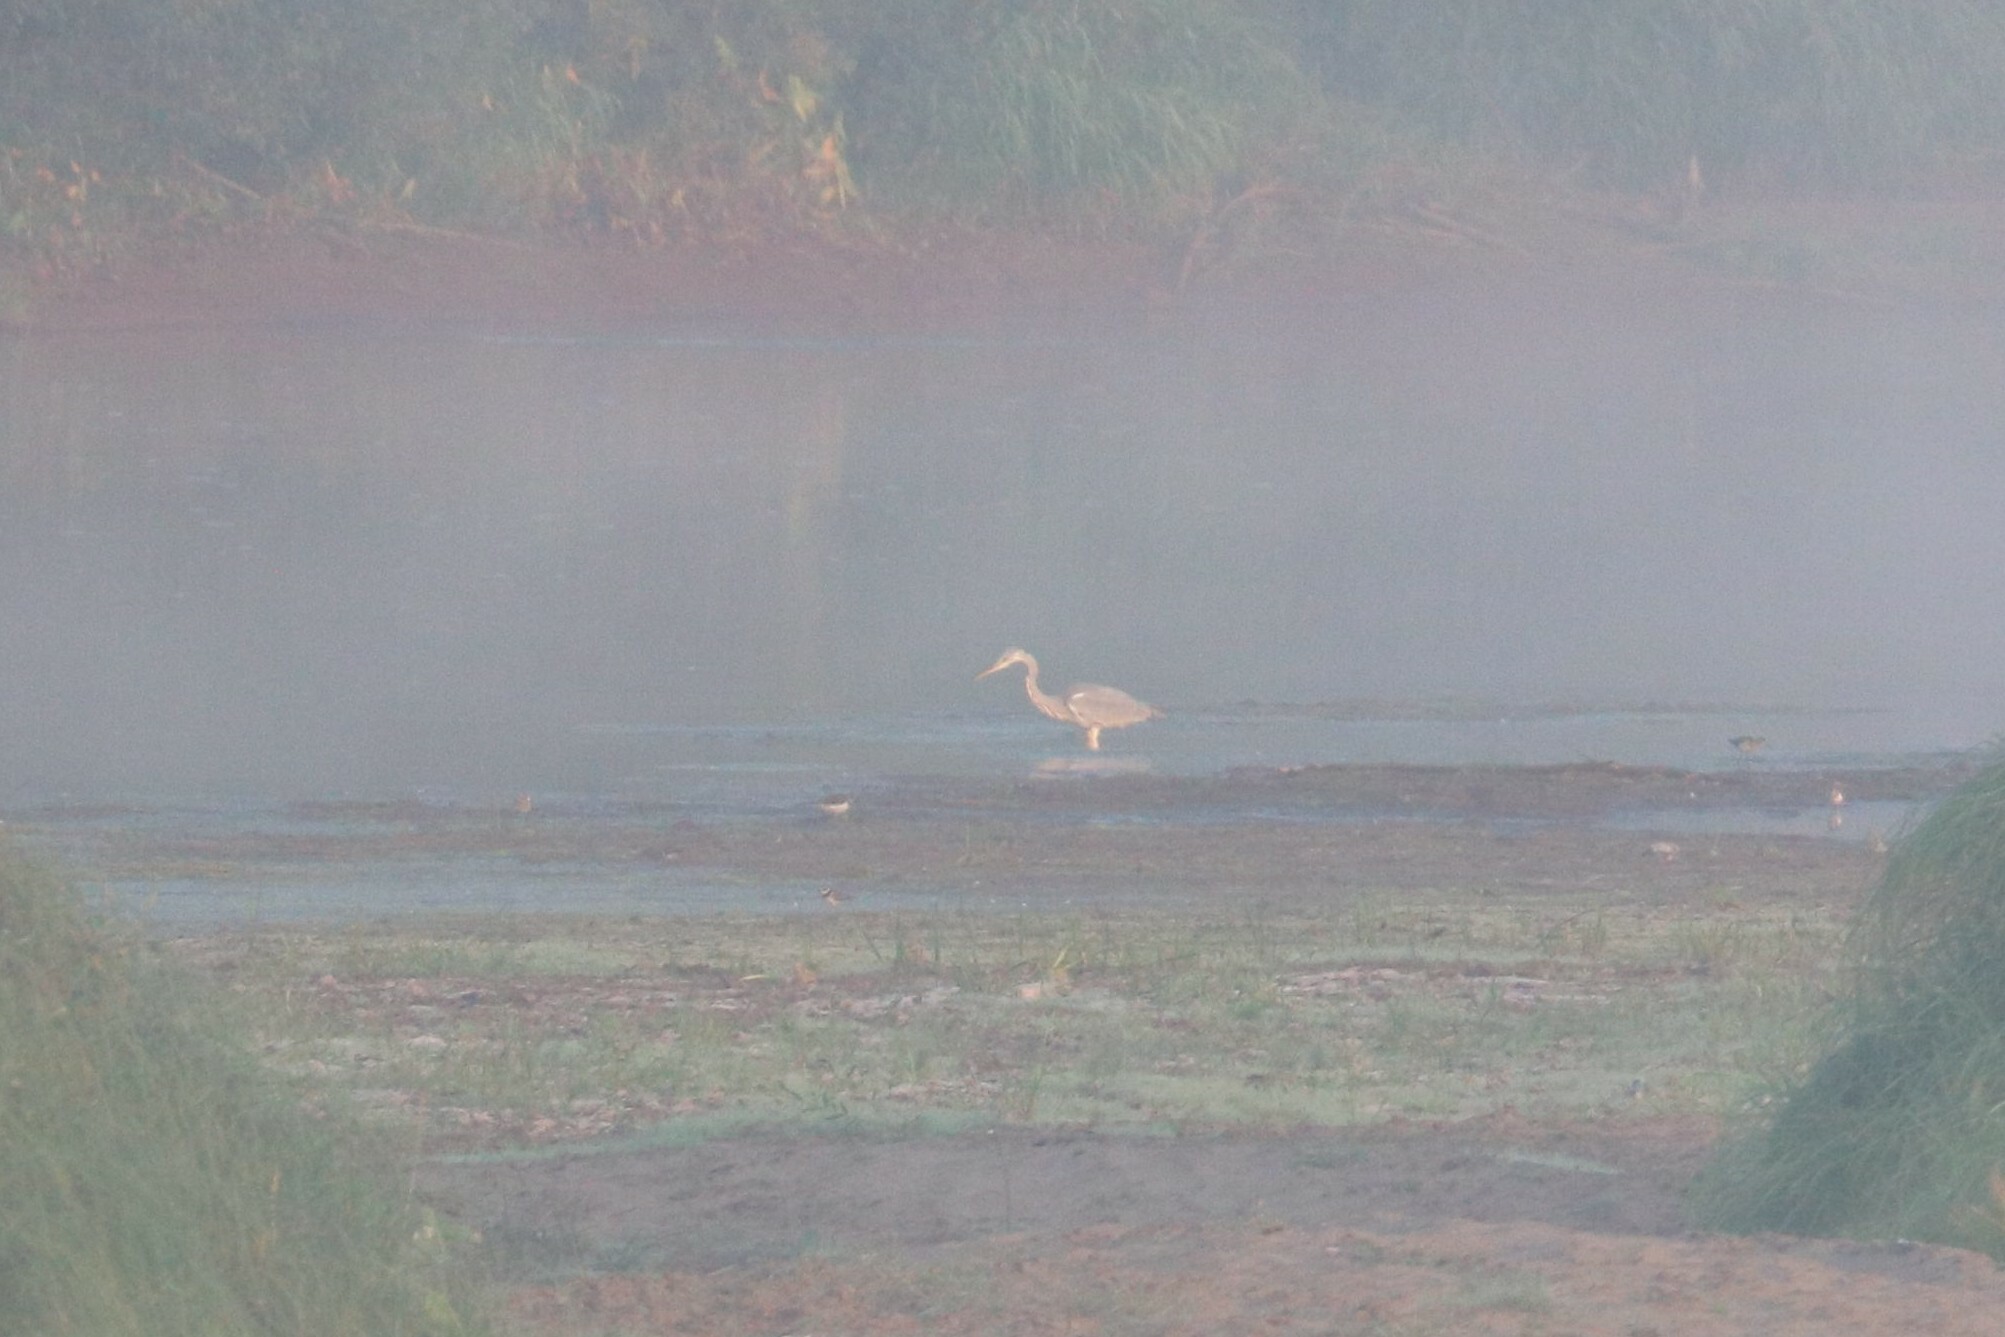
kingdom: Animalia
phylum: Chordata
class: Aves
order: Pelecaniformes
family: Ardeidae
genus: Ardea
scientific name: Ardea cinerea
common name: Grey heron
